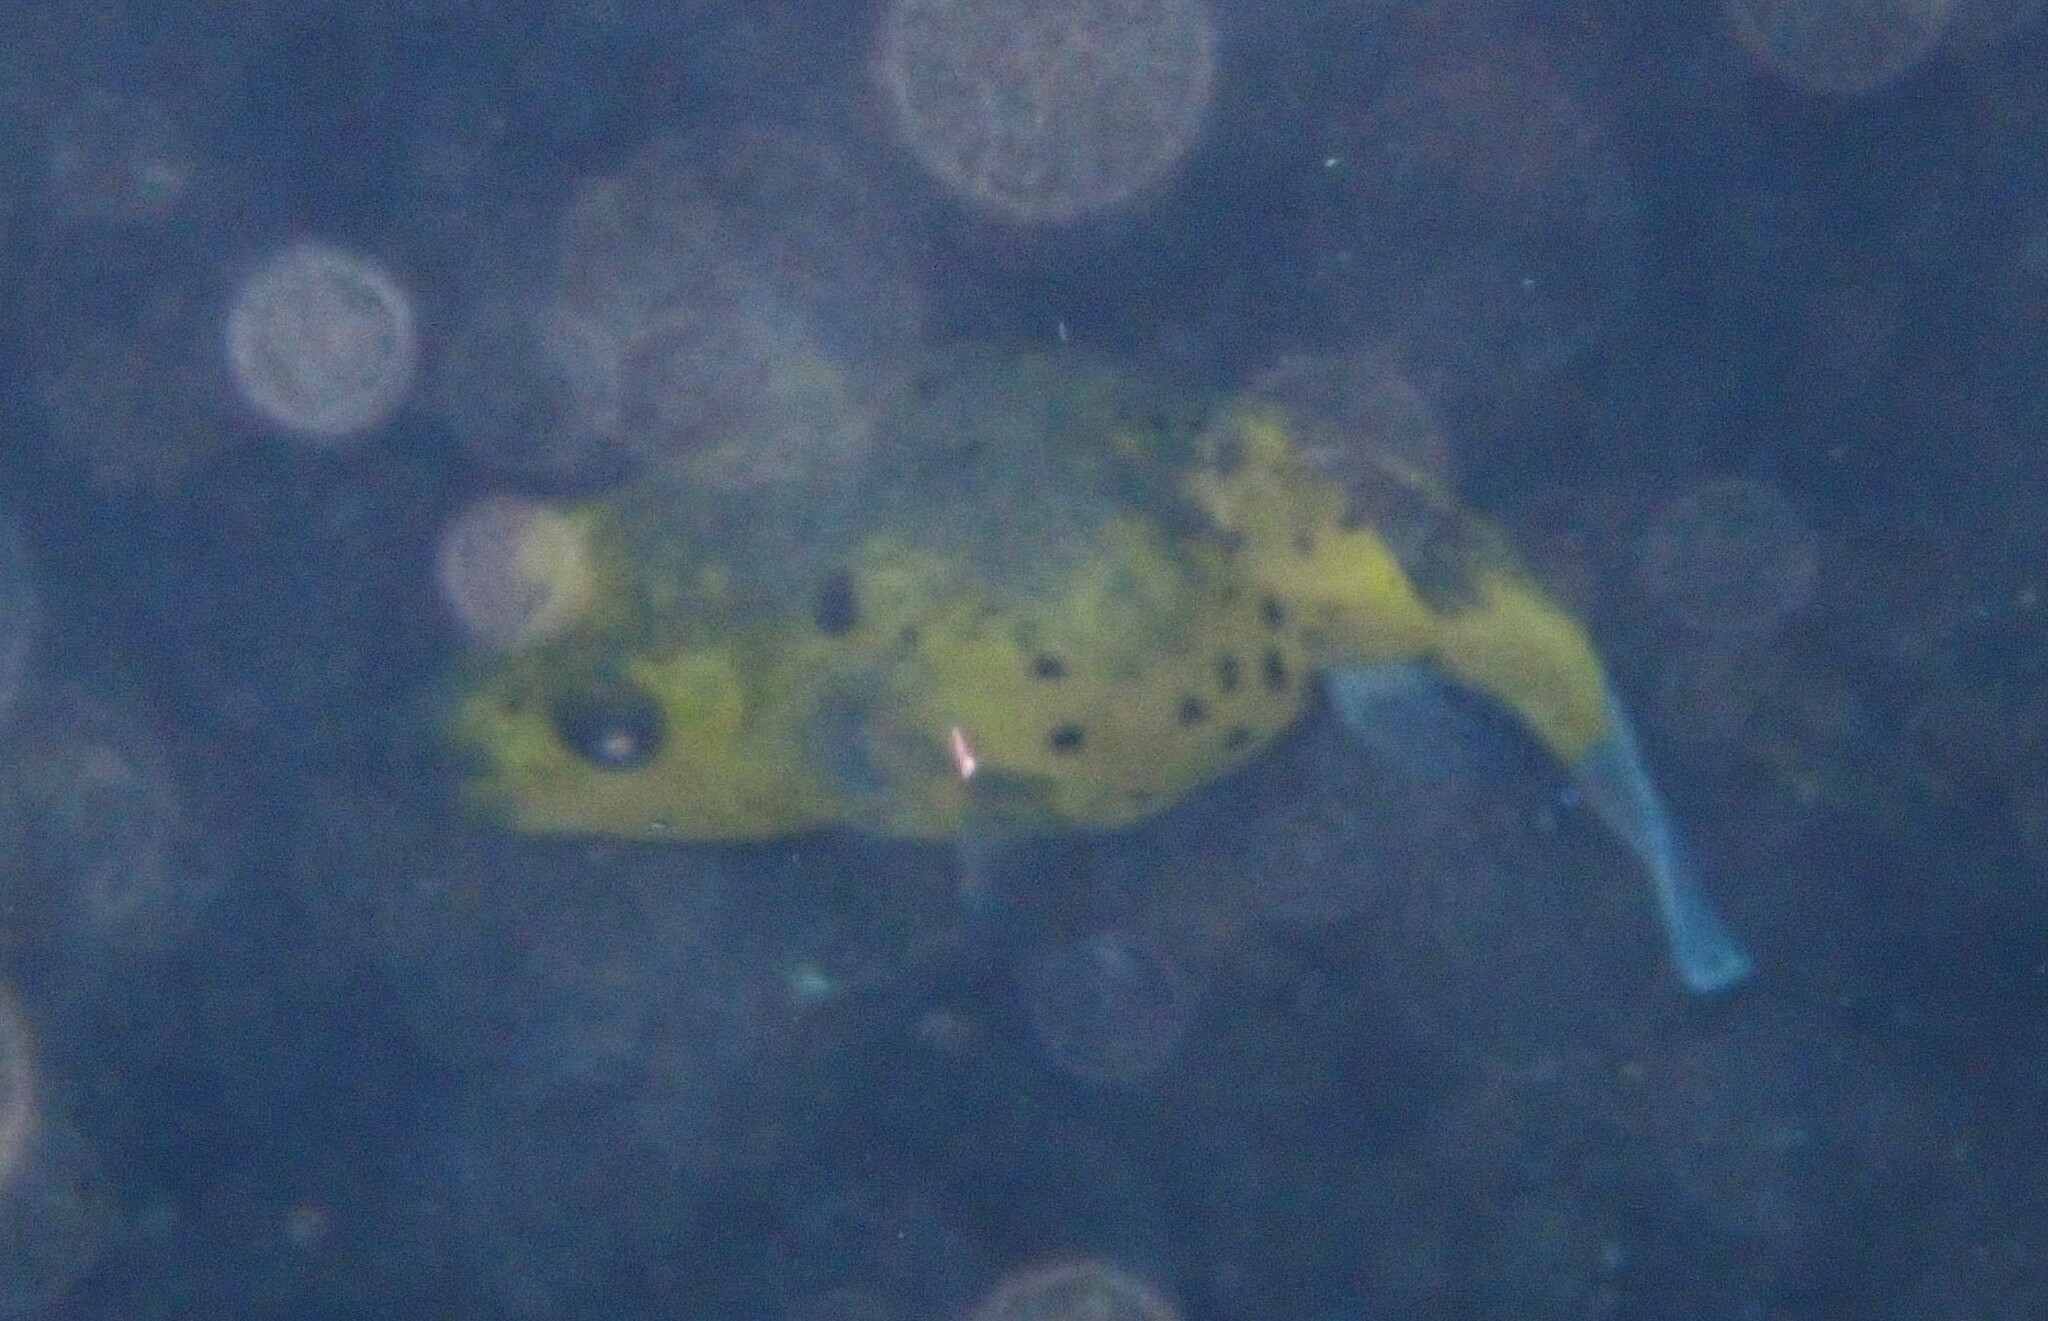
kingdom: Animalia
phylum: Chordata
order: Tetraodontiformes
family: Tetraodontidae
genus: Arothron
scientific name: Arothron nigropunctatus
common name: Black spotted blow fish
